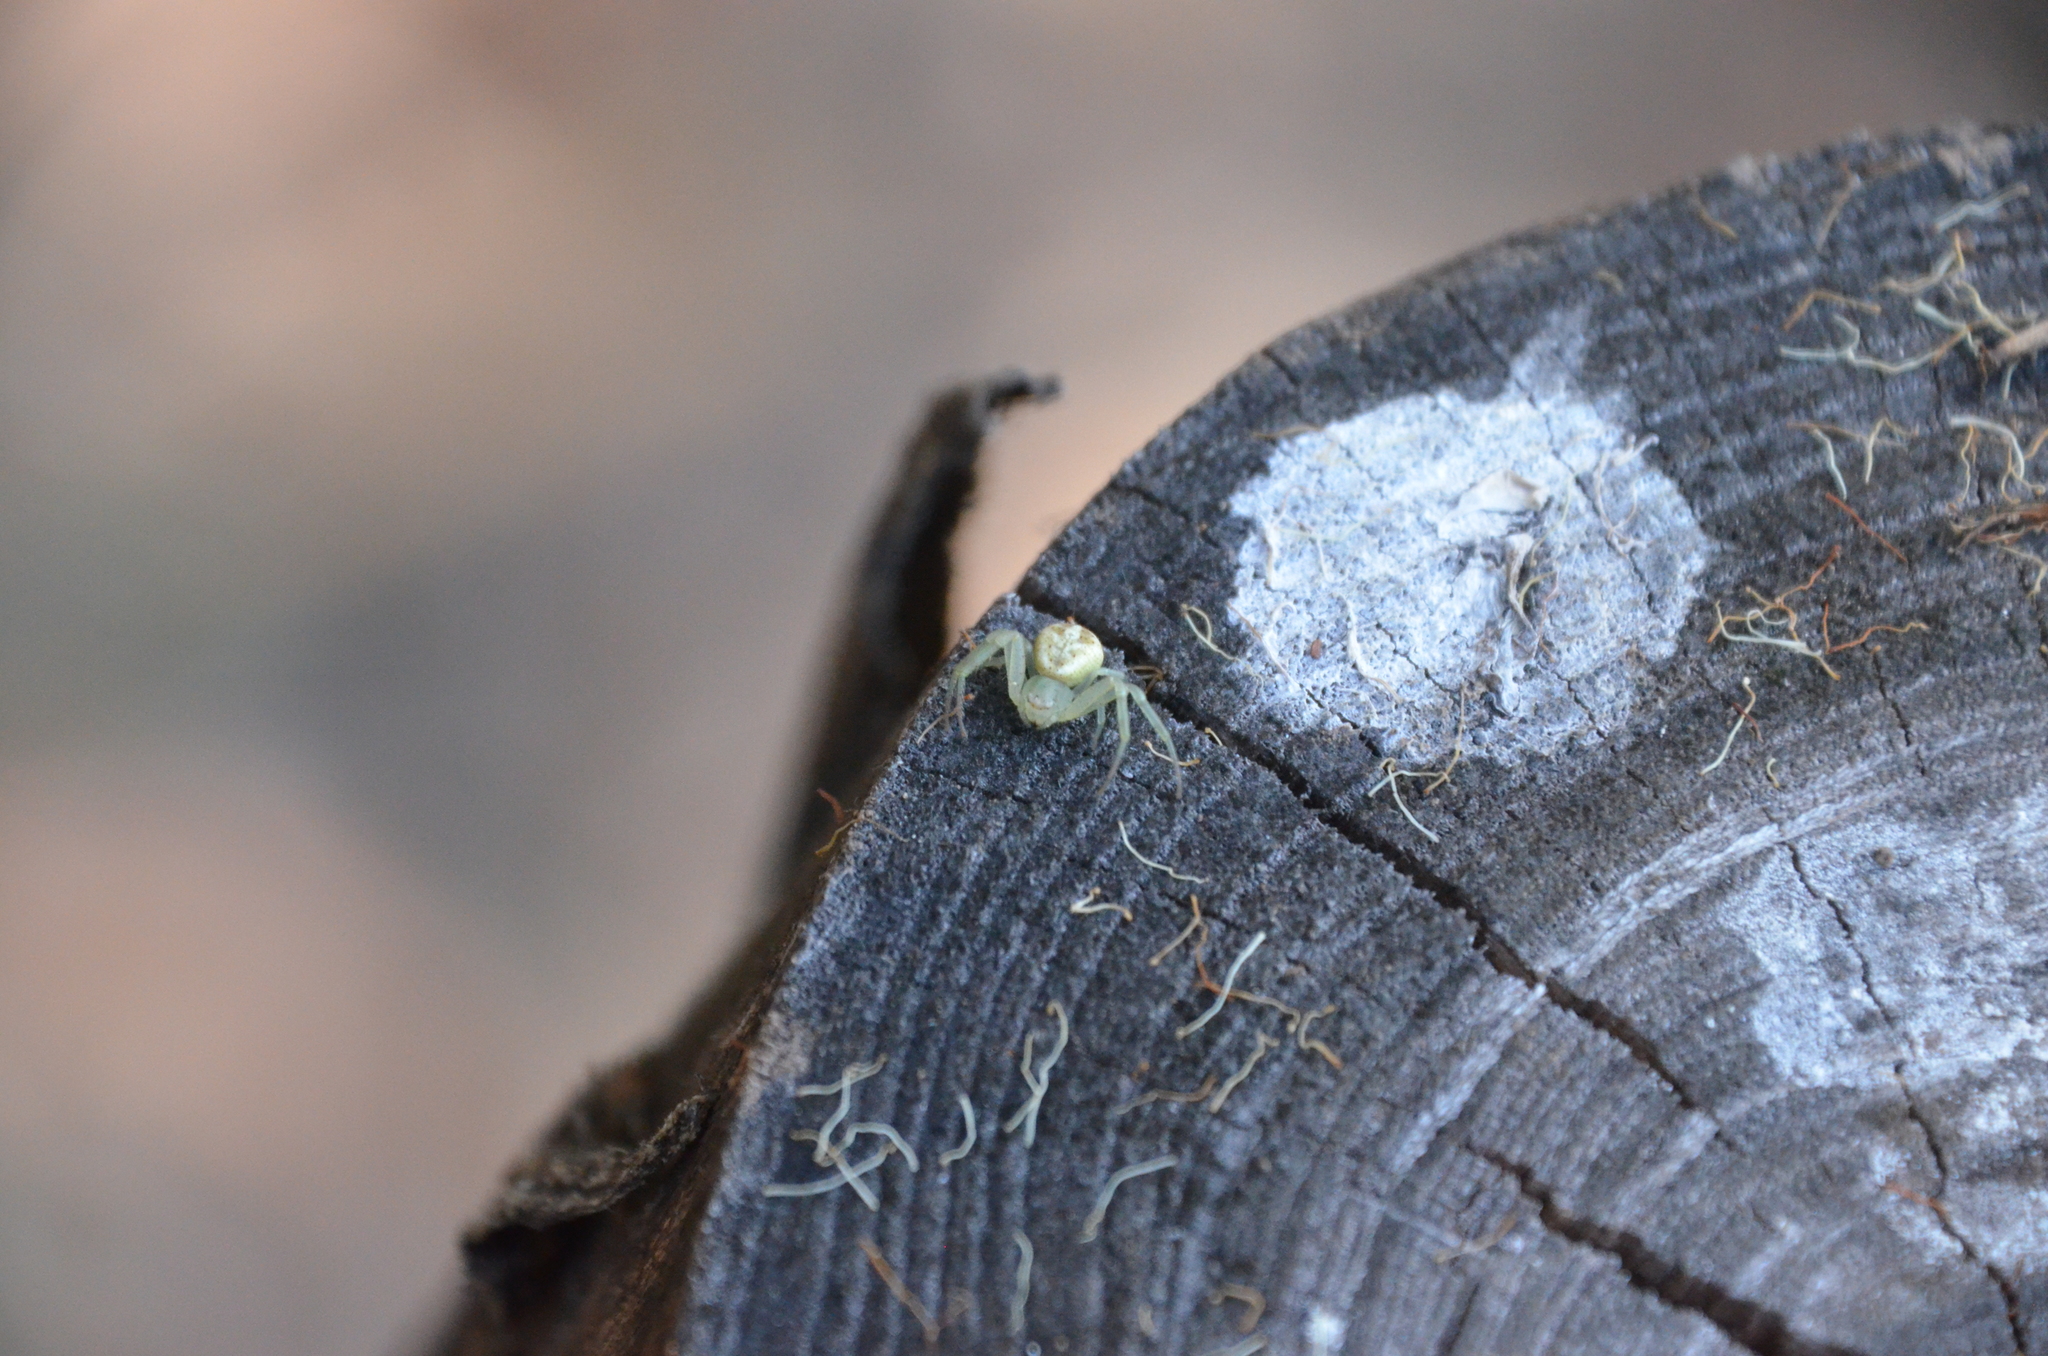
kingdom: Animalia
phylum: Arthropoda
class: Arachnida
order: Araneae
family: Thomisidae
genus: Misumenops
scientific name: Misumenops
